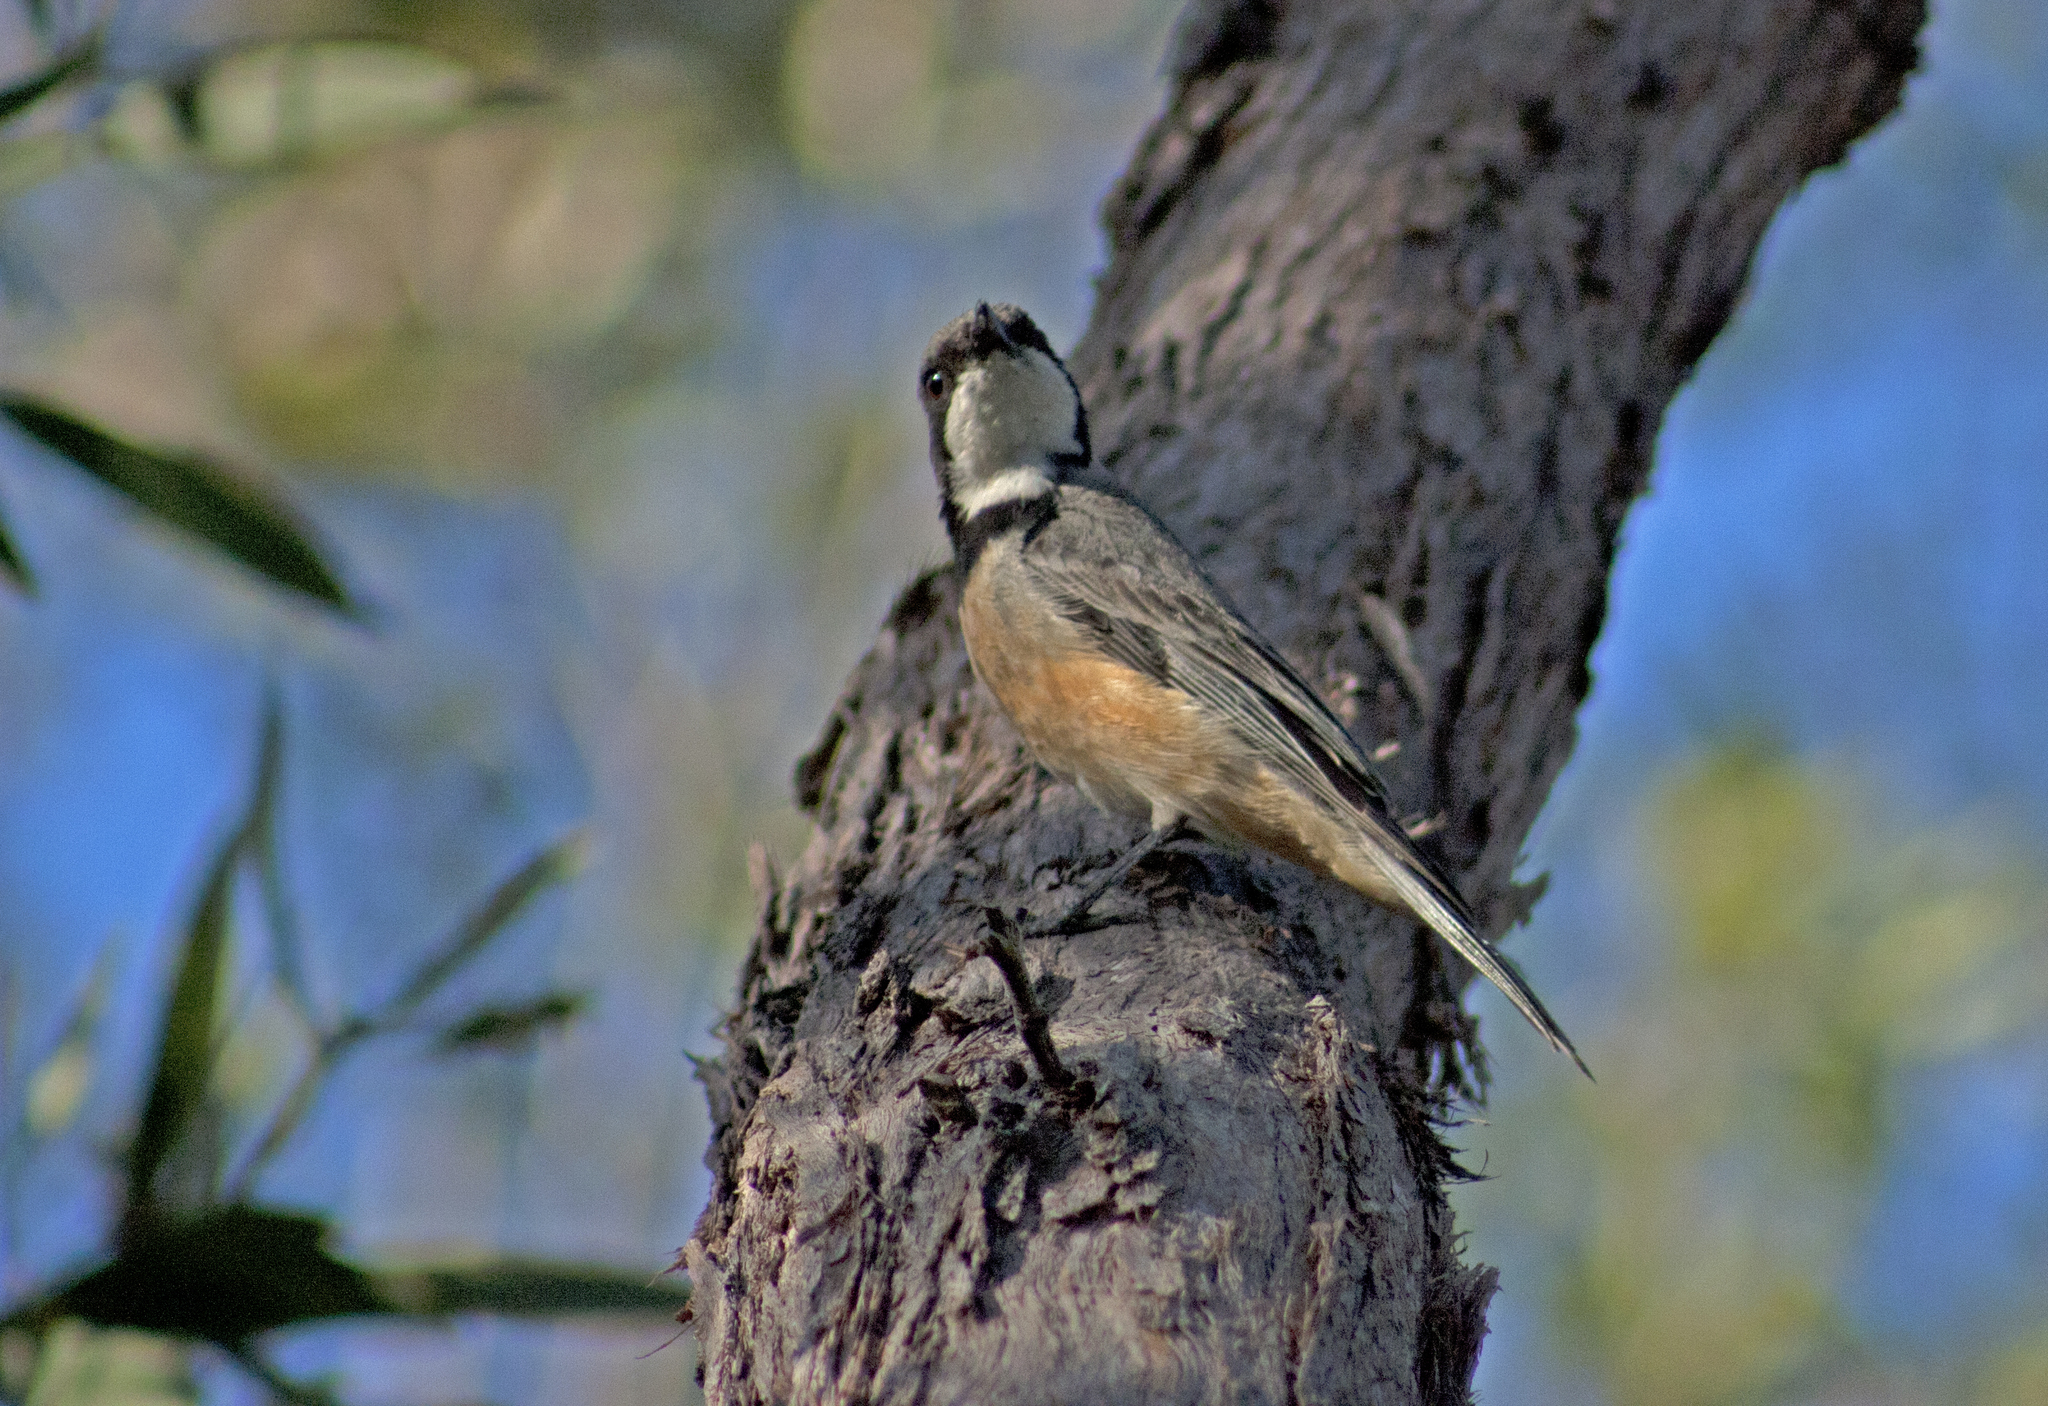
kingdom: Animalia
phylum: Chordata
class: Aves
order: Passeriformes
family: Pachycephalidae
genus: Pachycephala
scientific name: Pachycephala rufiventris
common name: Rufous whistler
